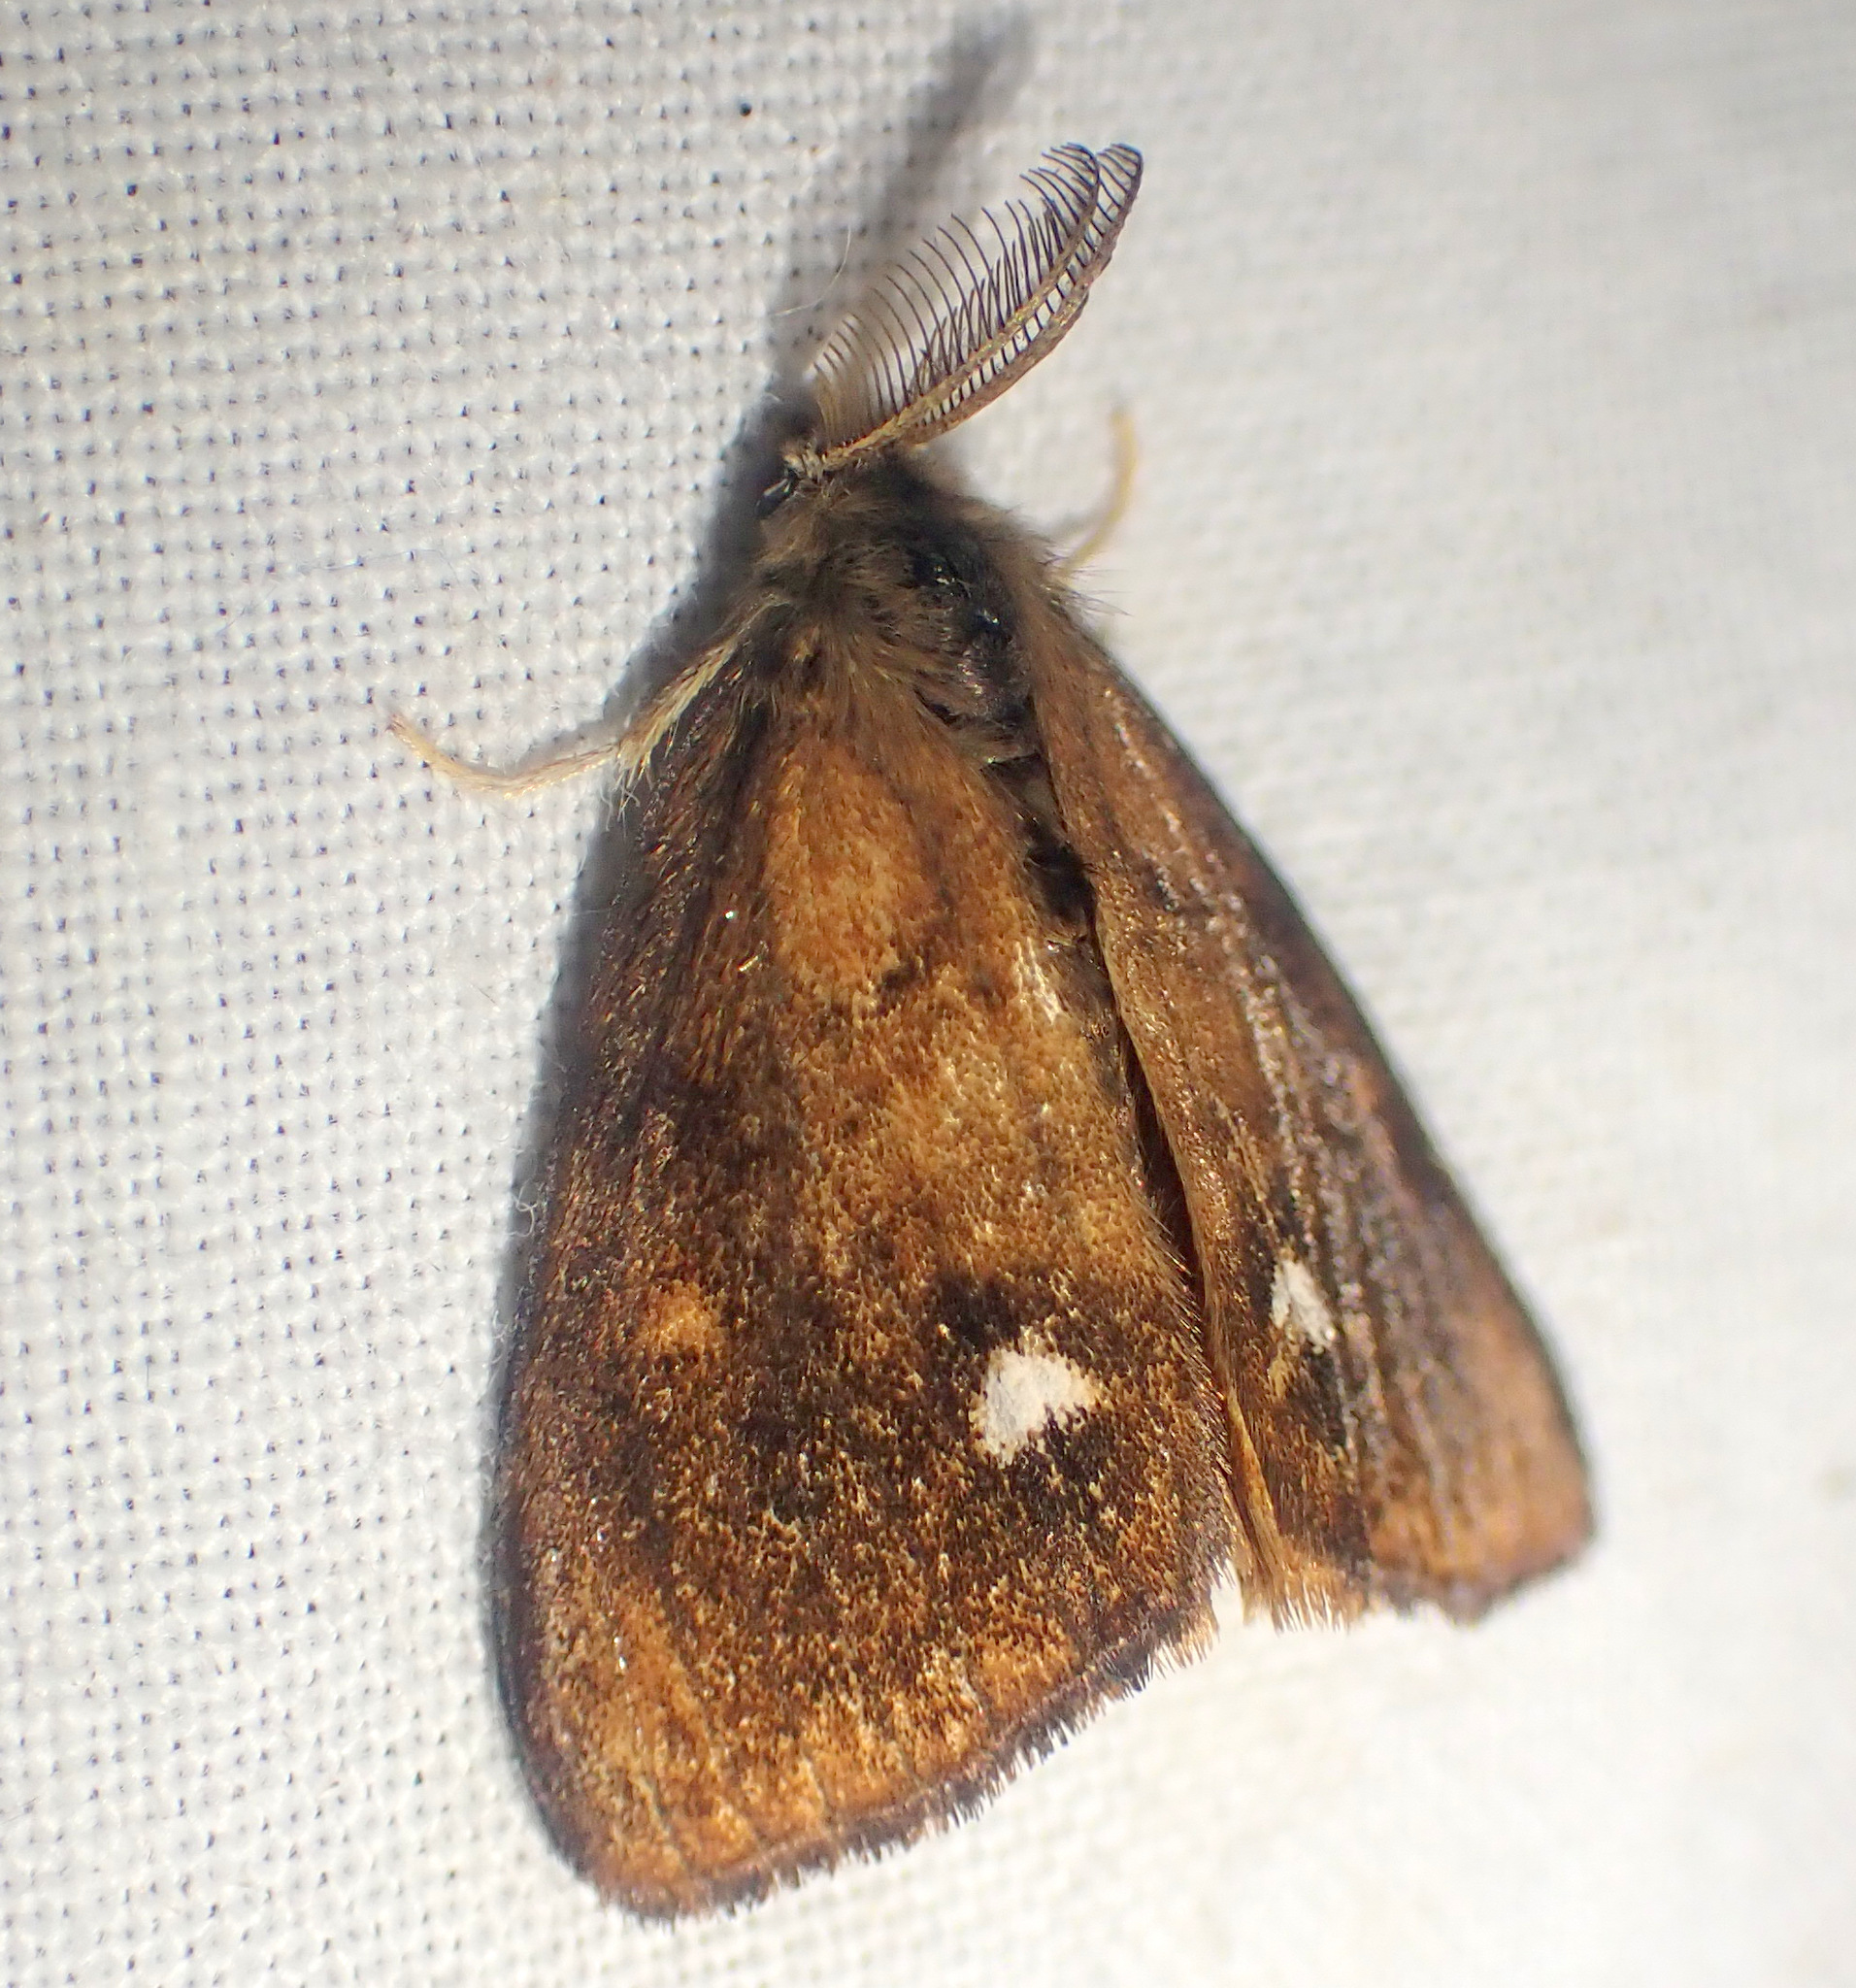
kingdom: Animalia
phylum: Arthropoda
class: Insecta
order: Lepidoptera
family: Erebidae
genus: Orgyia
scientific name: Orgyia antiqua
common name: Vapourer
